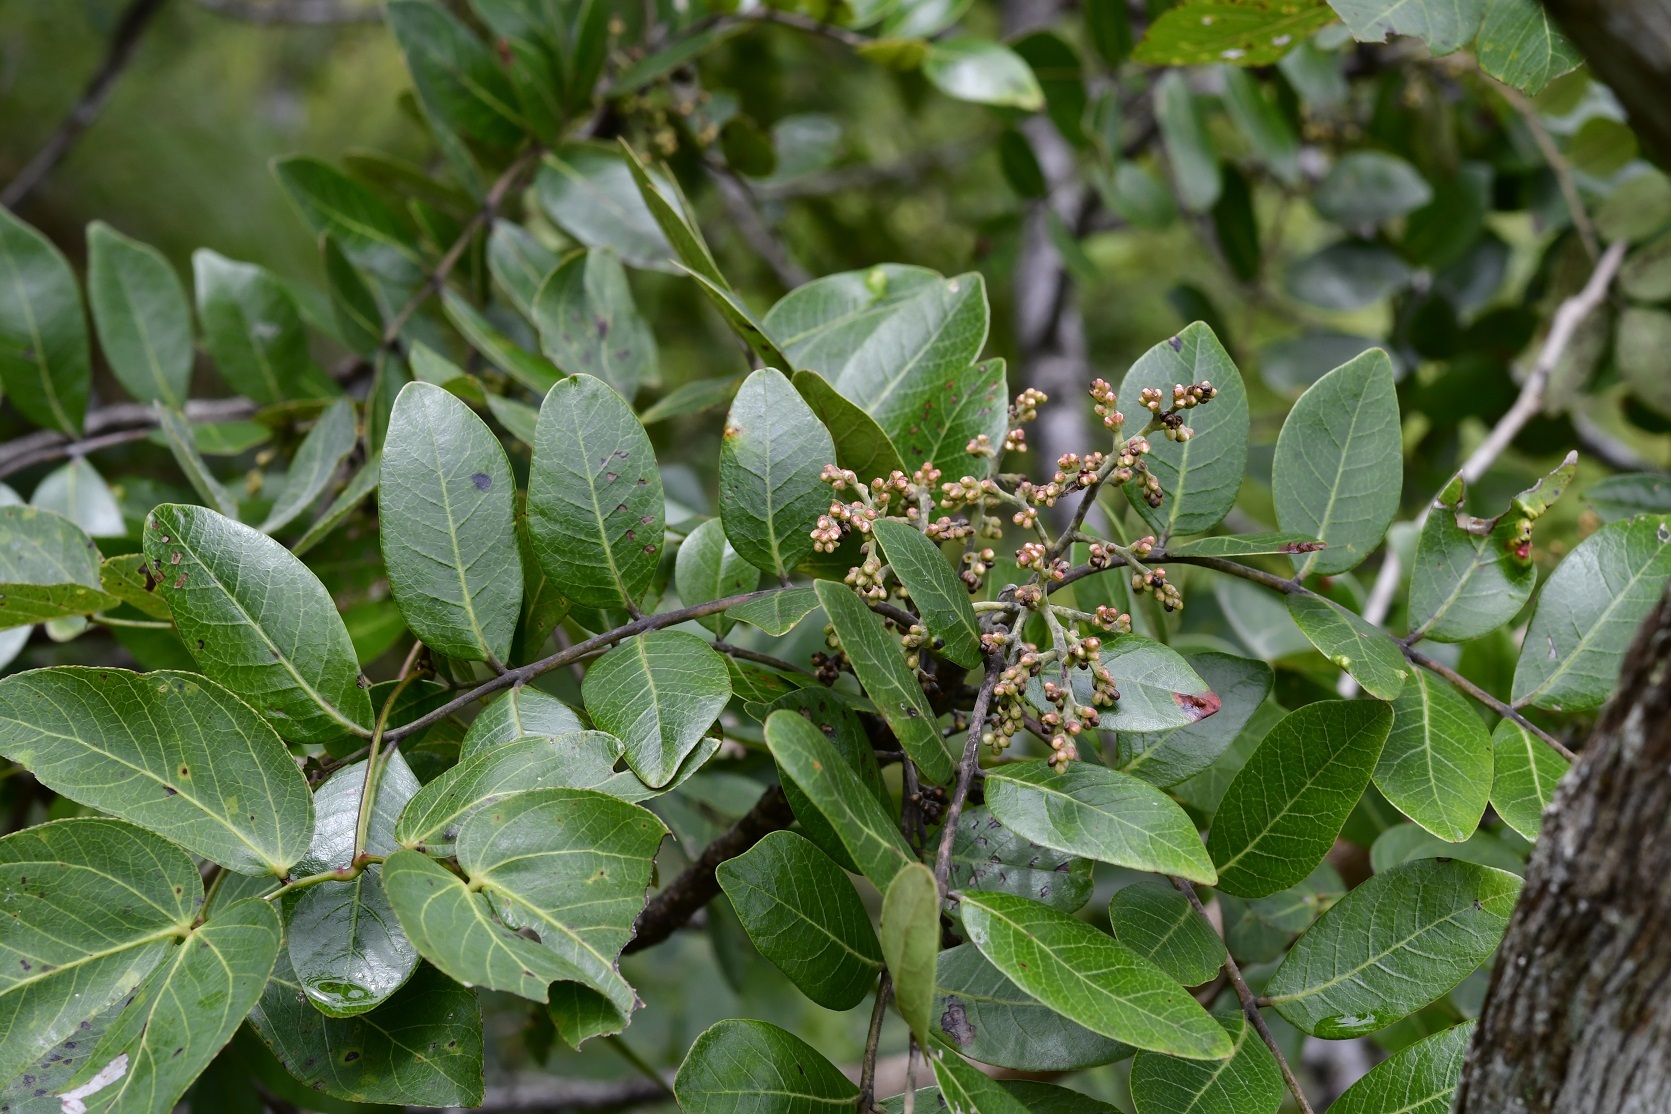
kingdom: Plantae
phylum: Tracheophyta
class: Magnoliopsida
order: Sapindales
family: Anacardiaceae
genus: Rhus
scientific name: Rhus schiedeana
